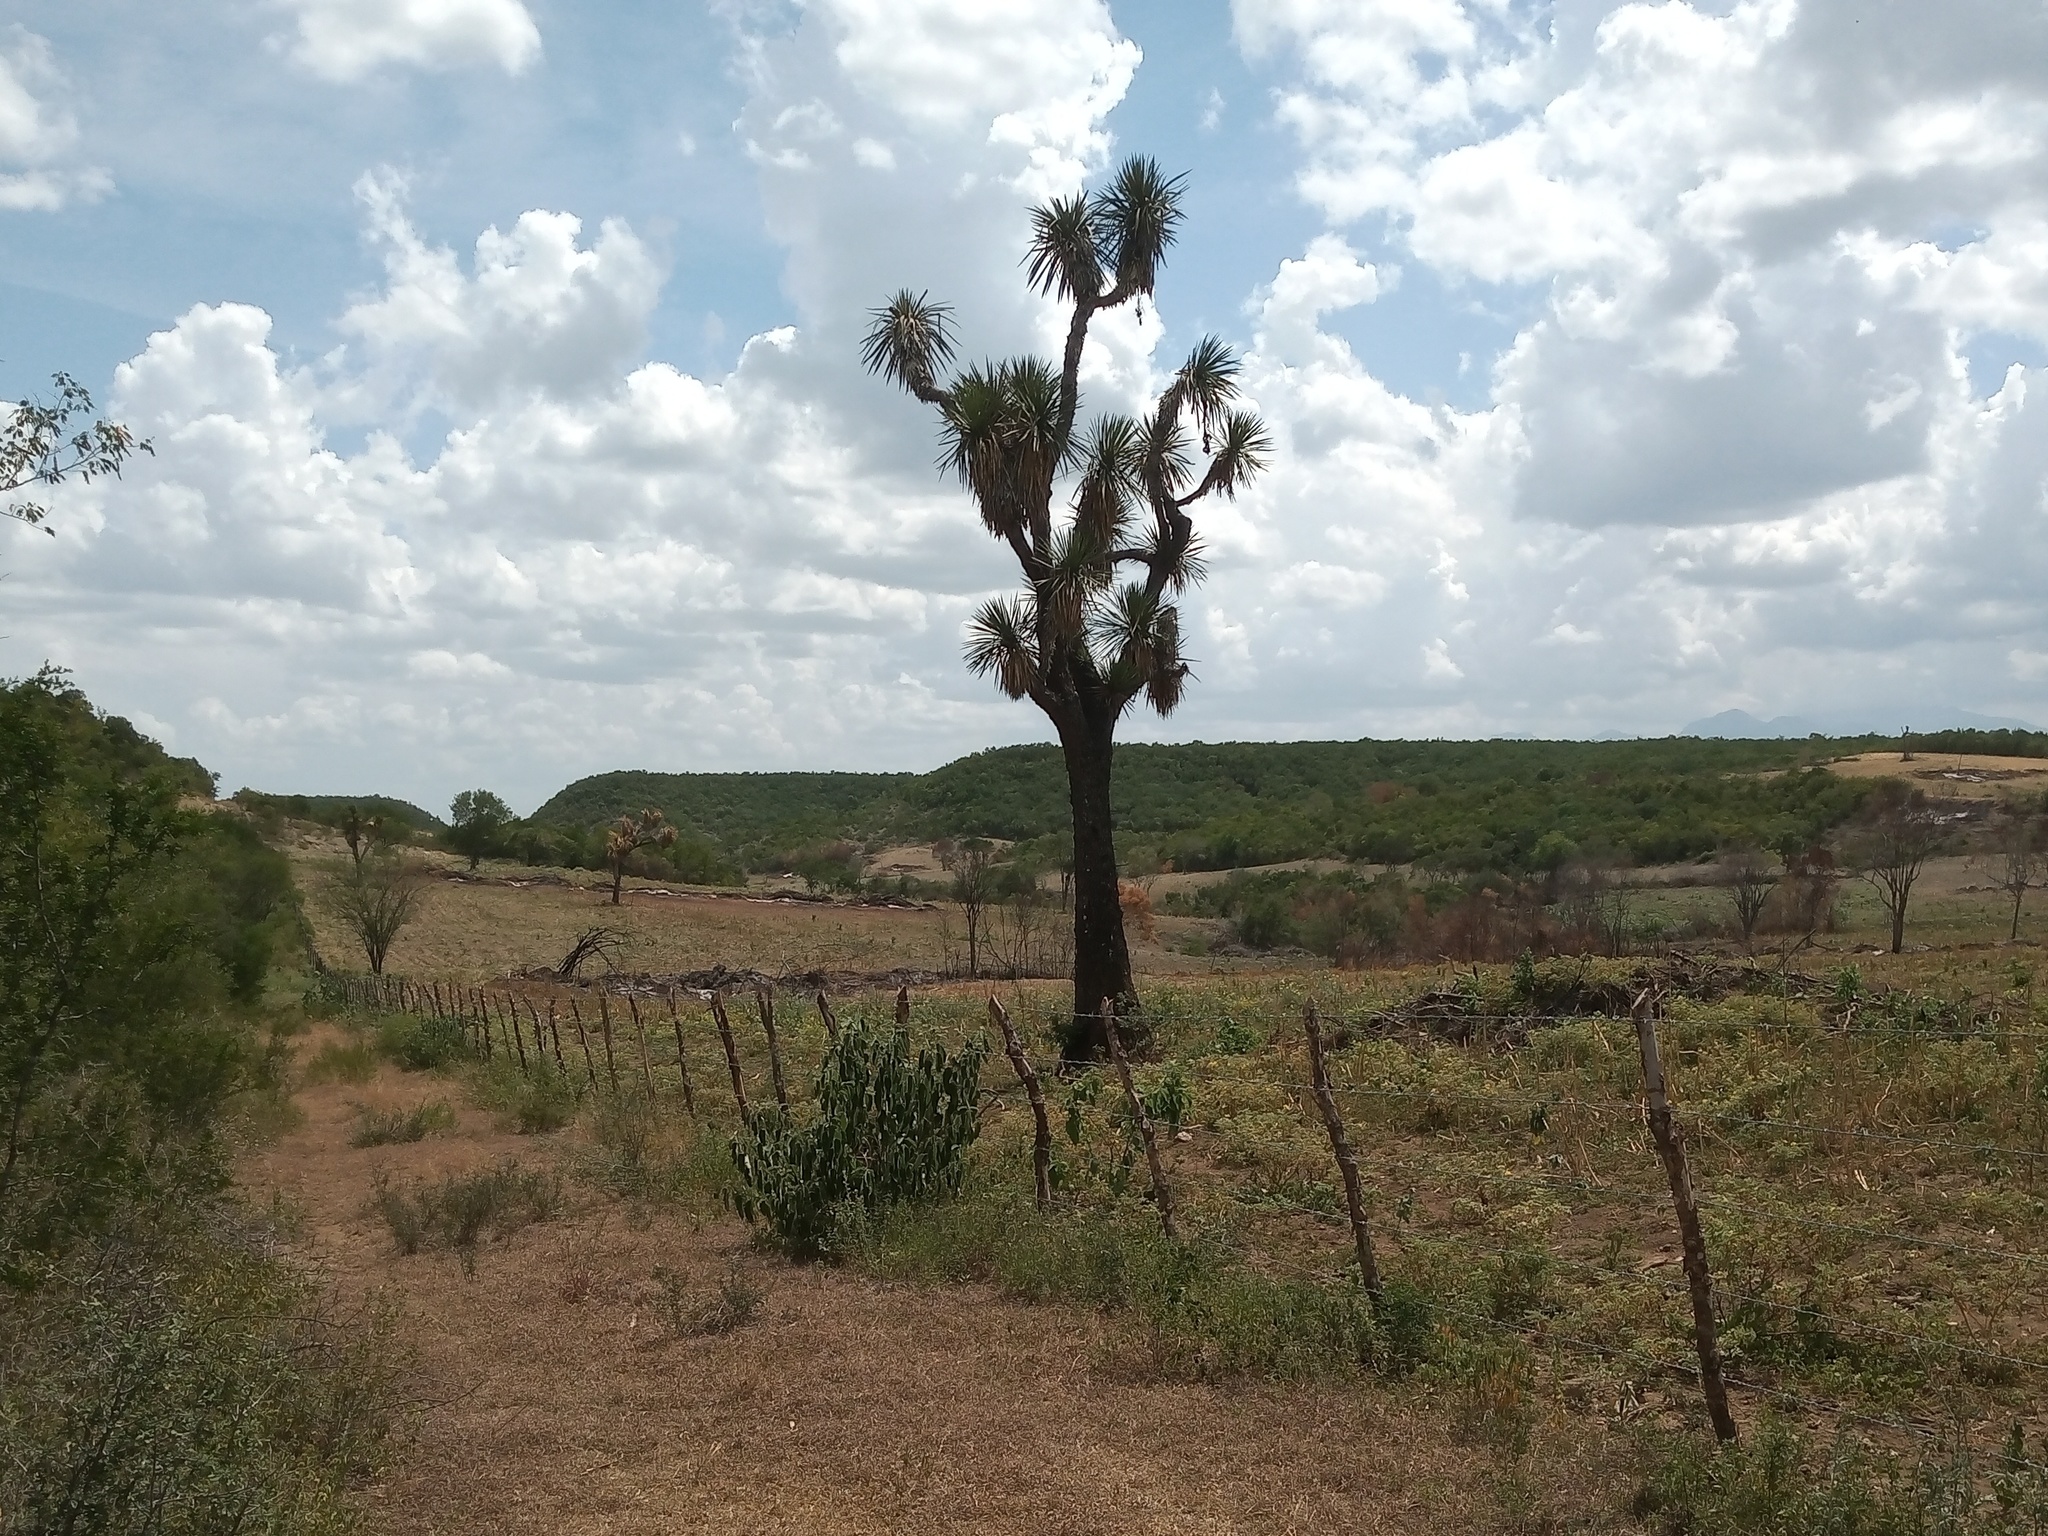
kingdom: Plantae
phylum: Tracheophyta
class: Liliopsida
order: Asparagales
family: Asparagaceae
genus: Yucca
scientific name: Yucca filifera
